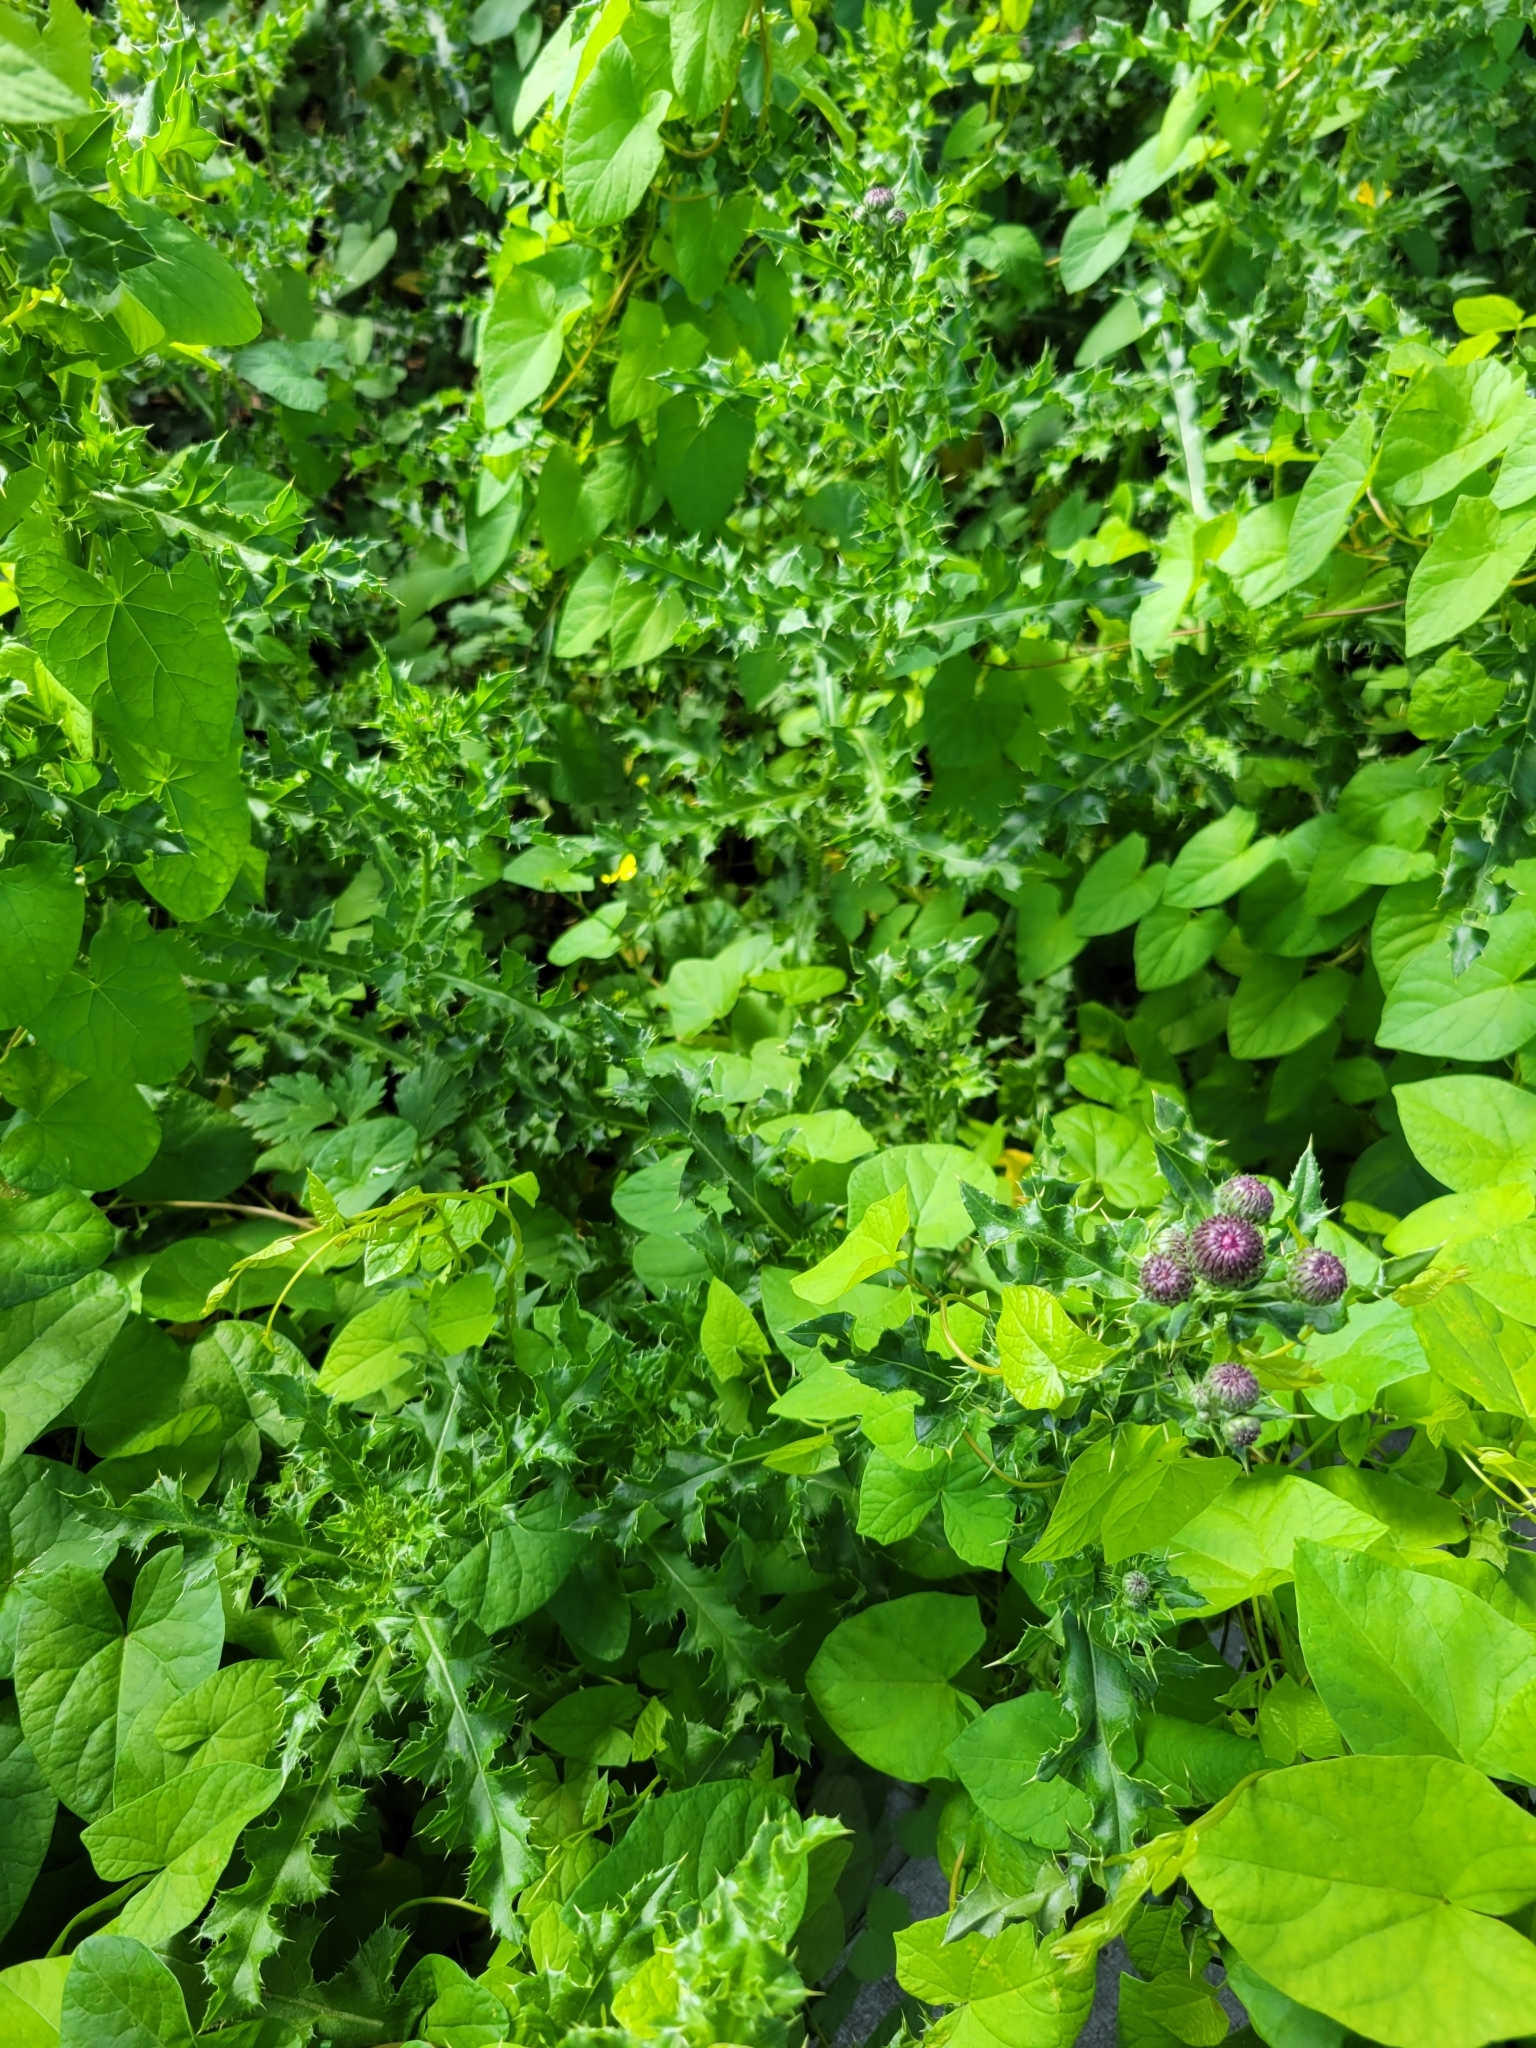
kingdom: Plantae
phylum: Tracheophyta
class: Magnoliopsida
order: Asterales
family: Asteraceae
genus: Cirsium
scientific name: Cirsium arvense
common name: Creeping thistle
